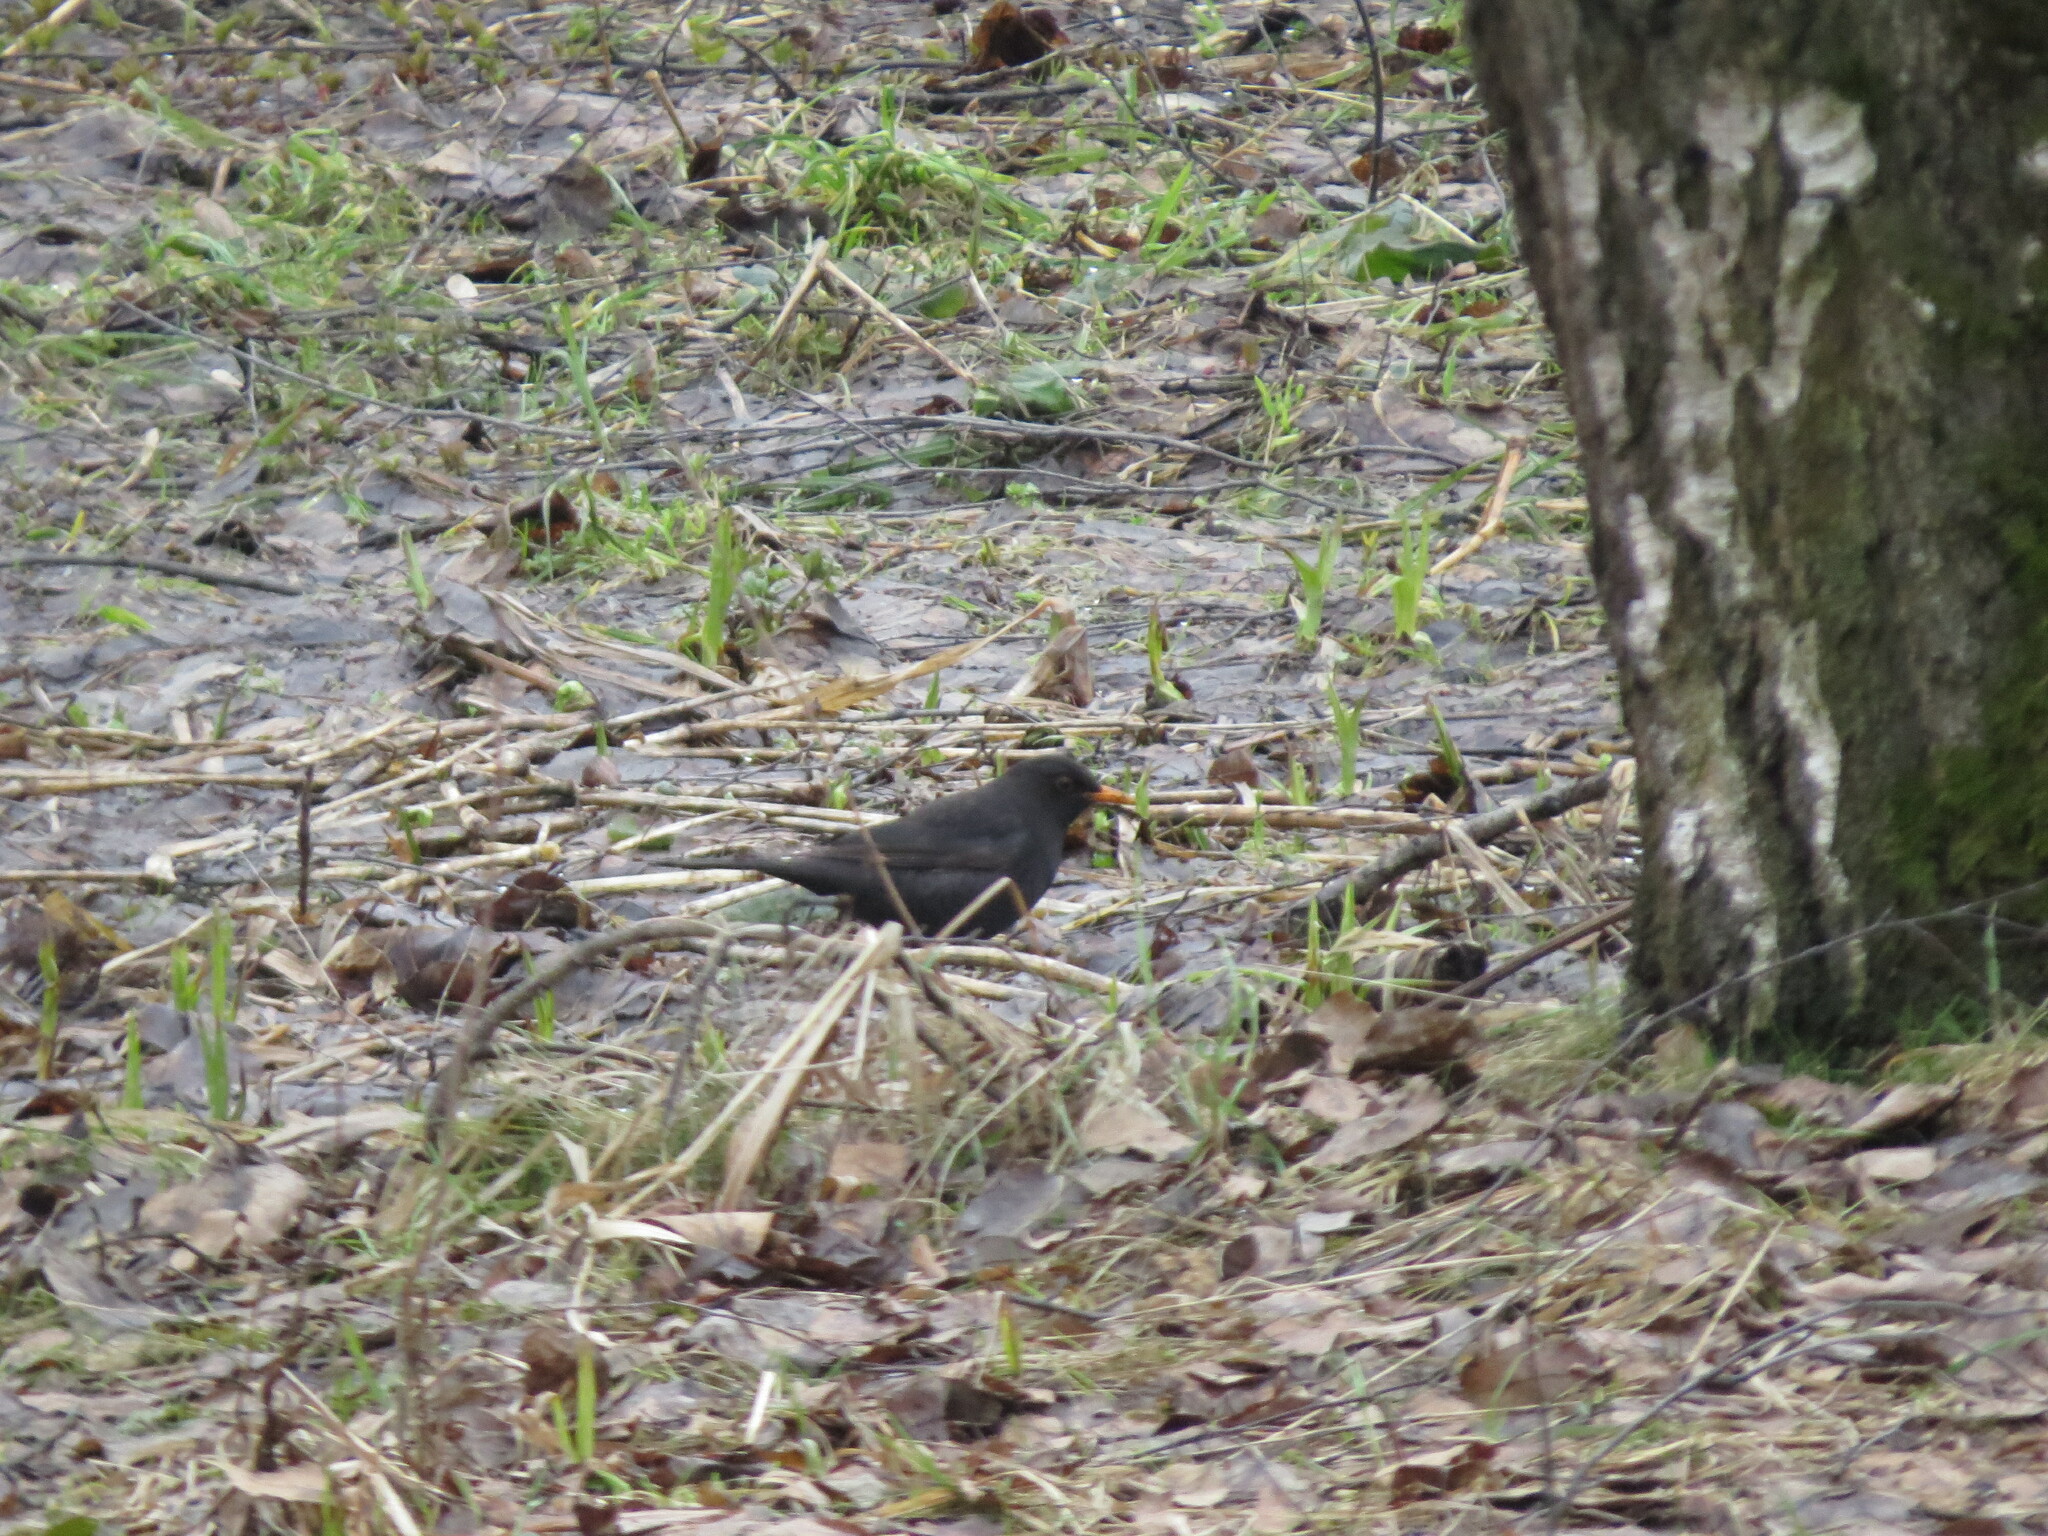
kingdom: Animalia
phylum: Chordata
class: Aves
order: Passeriformes
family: Turdidae
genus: Turdus
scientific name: Turdus merula
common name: Common blackbird
